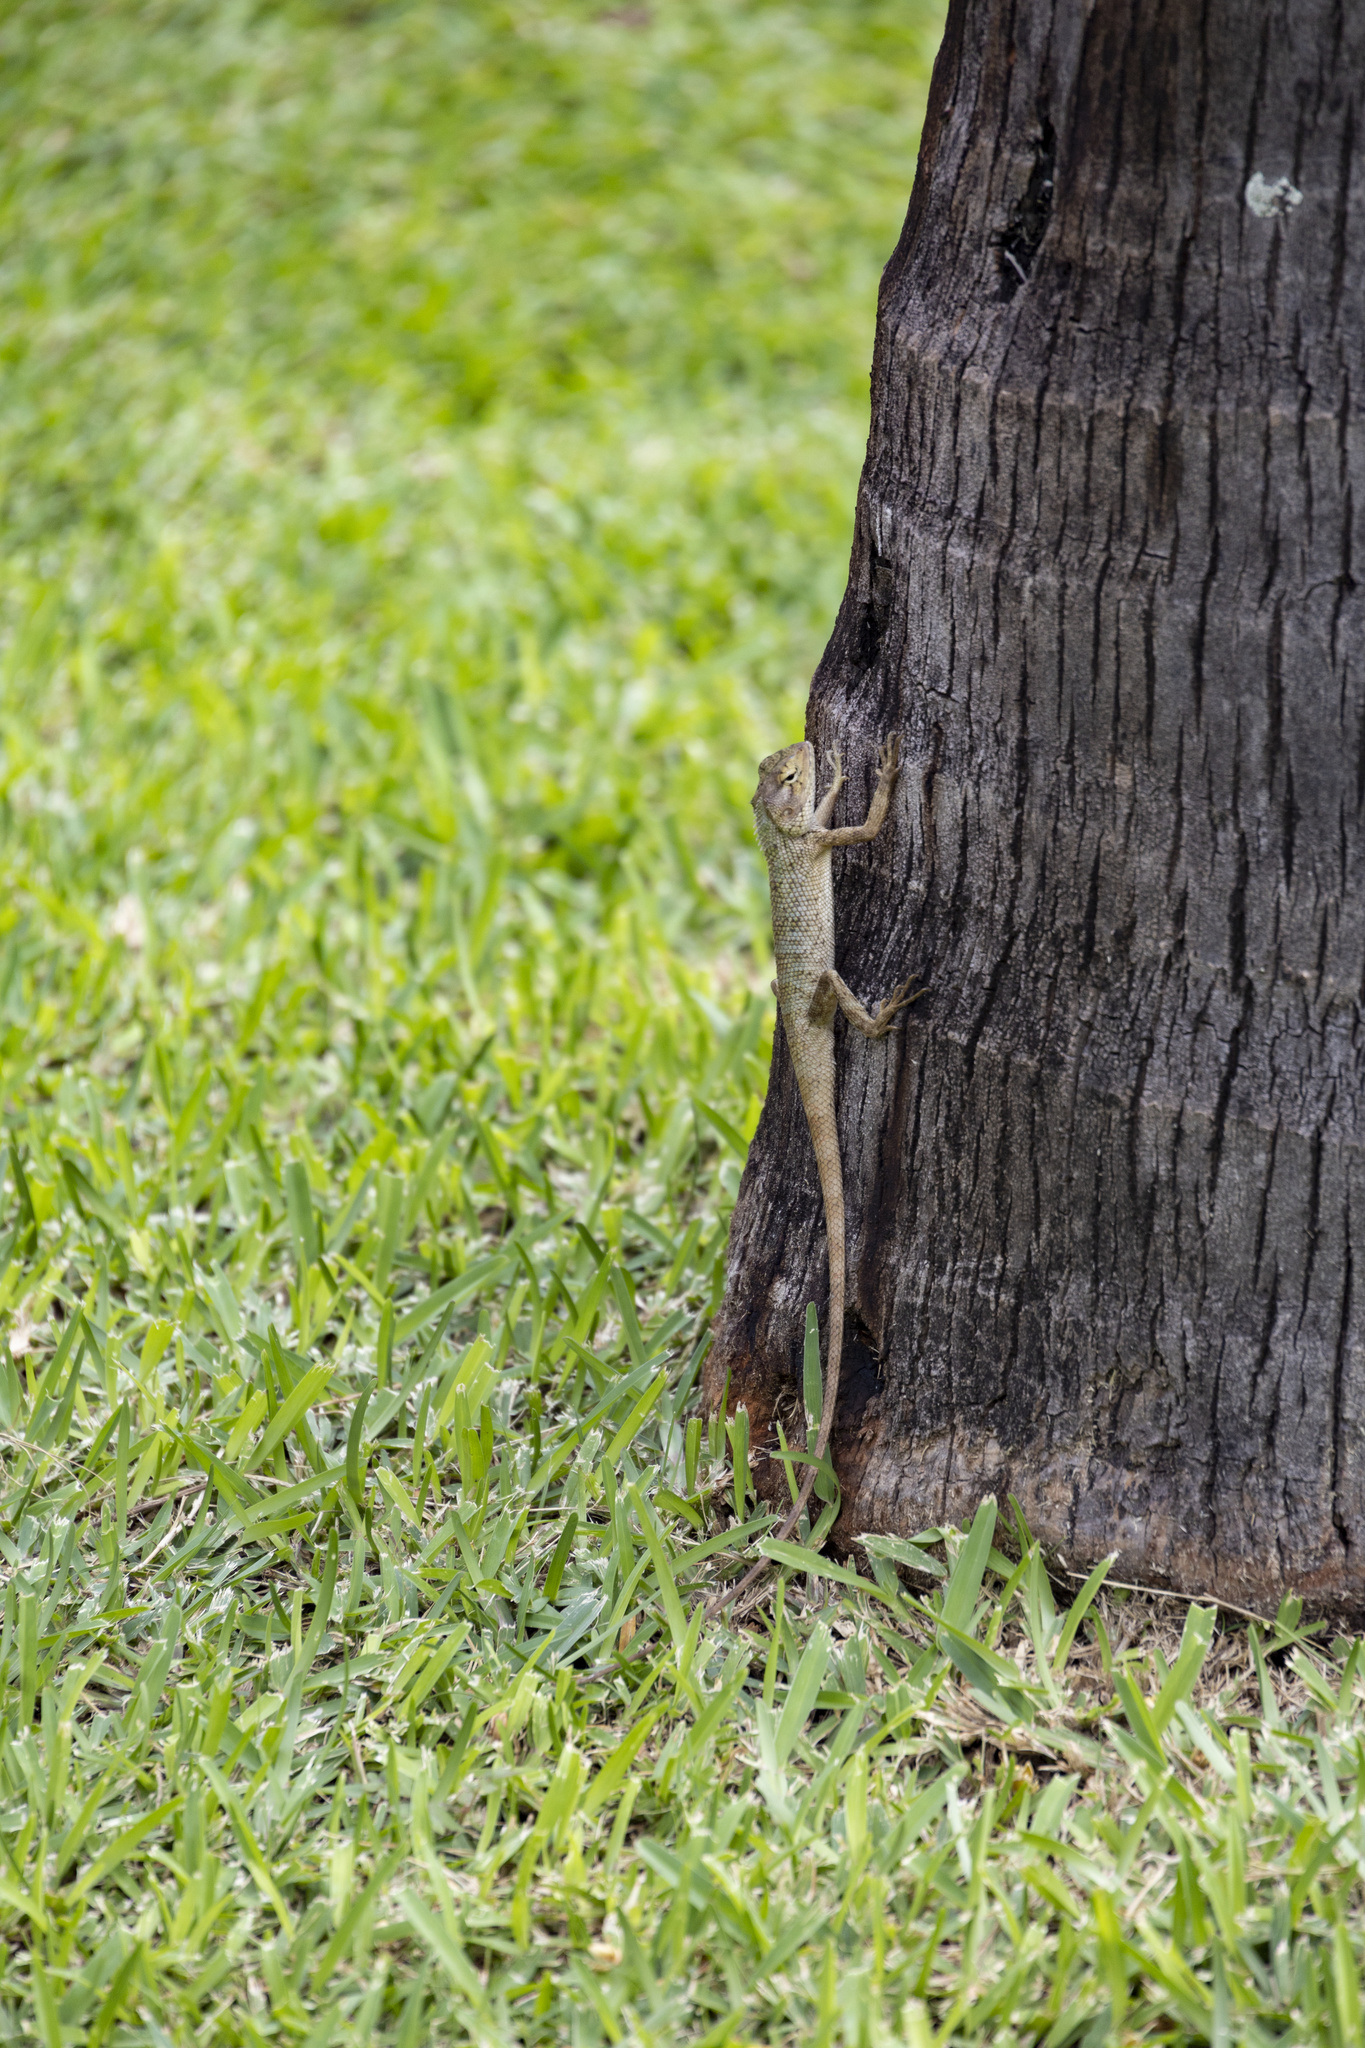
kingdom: Animalia
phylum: Chordata
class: Squamata
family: Agamidae
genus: Calotes
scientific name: Calotes versicolor
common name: Oriental garden lizard
